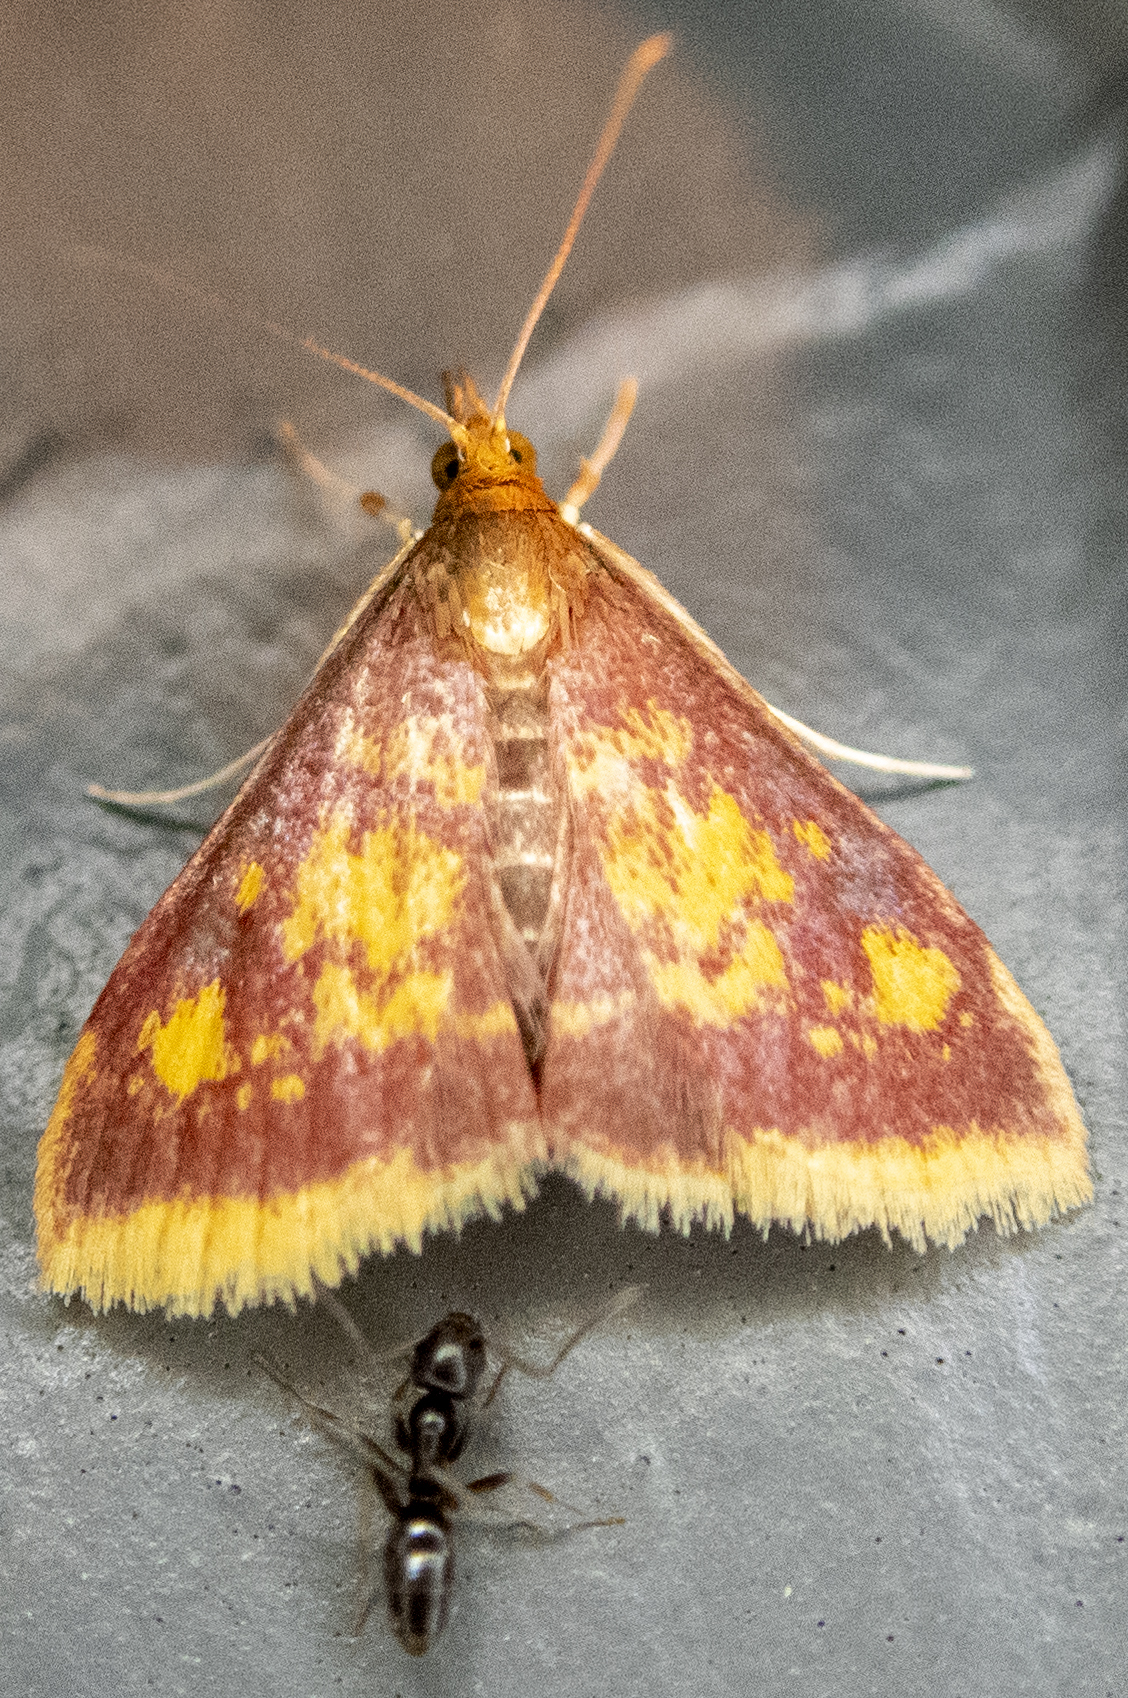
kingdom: Animalia
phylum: Arthropoda
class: Insecta
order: Lepidoptera
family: Crambidae
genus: Pyrausta
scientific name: Pyrausta acrionalis
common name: Mint-loving pyrausta moth
